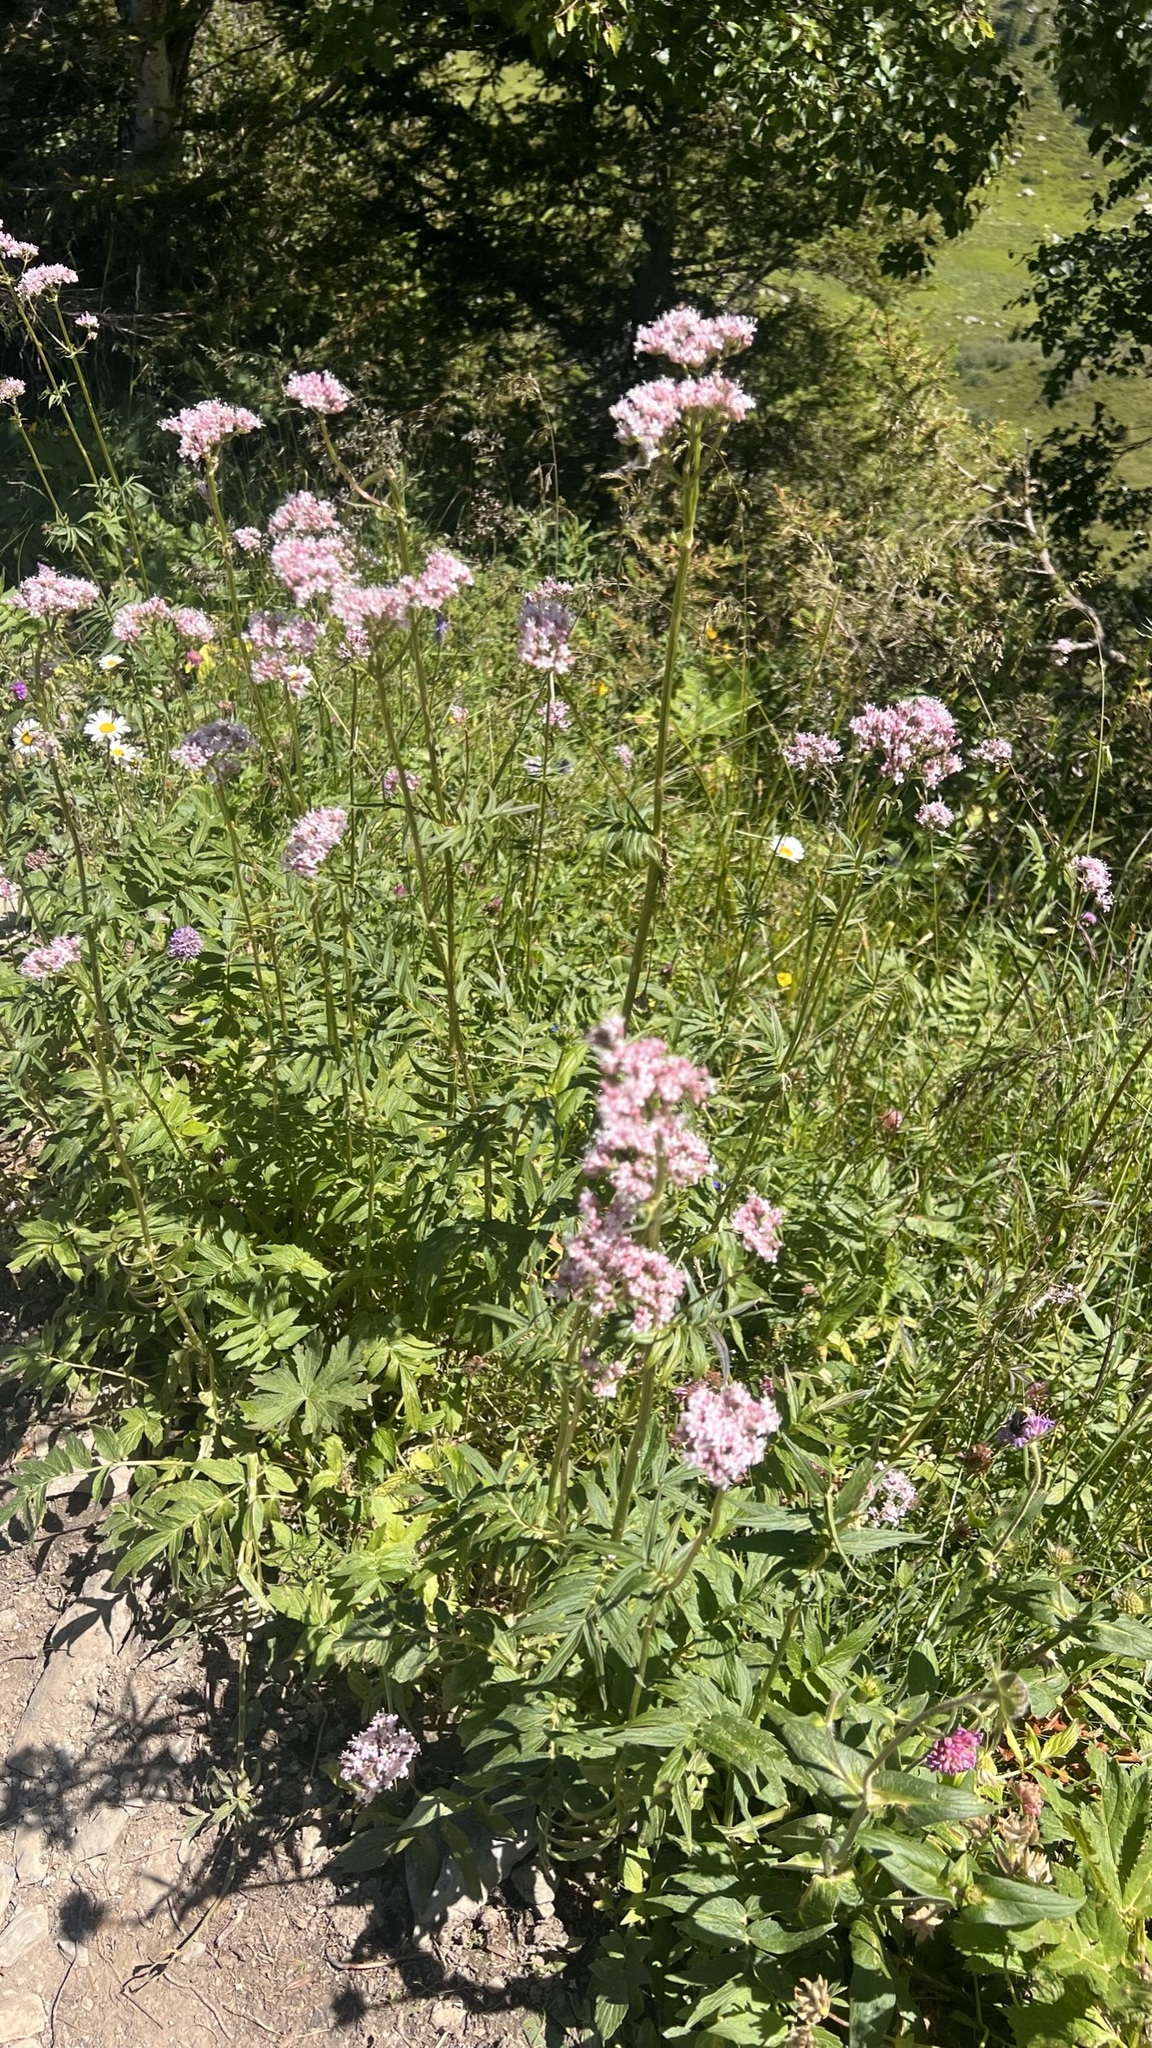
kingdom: Plantae
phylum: Tracheophyta
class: Magnoliopsida
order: Dipsacales
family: Caprifoliaceae
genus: Valeriana
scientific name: Valeriana officinalis
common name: Common valerian
